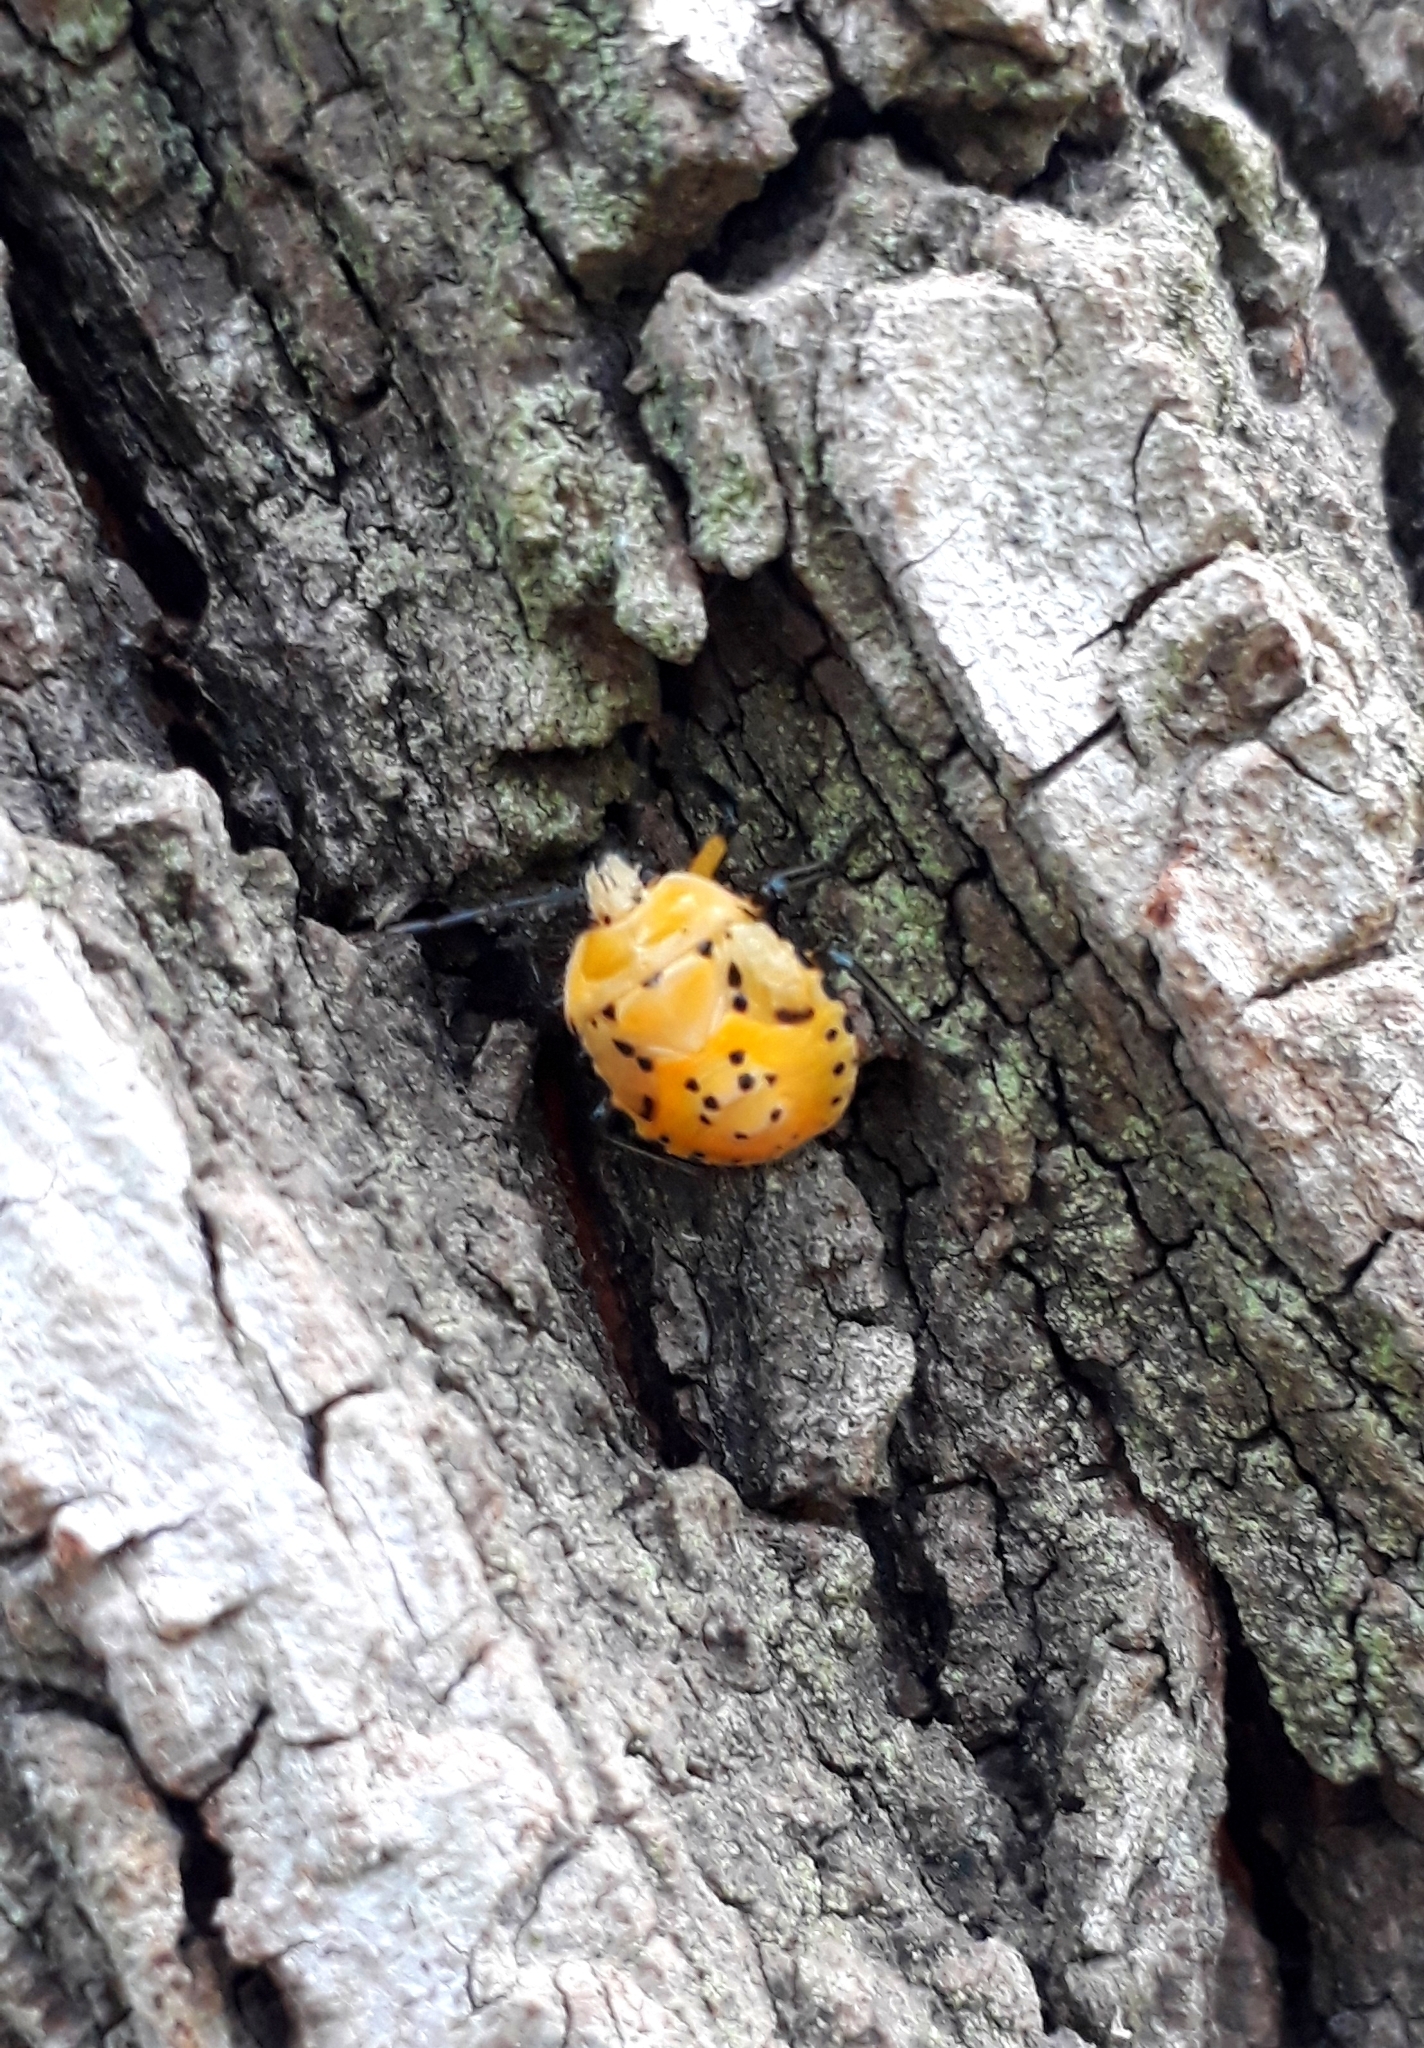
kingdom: Animalia
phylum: Arthropoda
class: Insecta
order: Hemiptera
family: Pentatomidae
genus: Brontocoris
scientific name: Brontocoris tabidus
